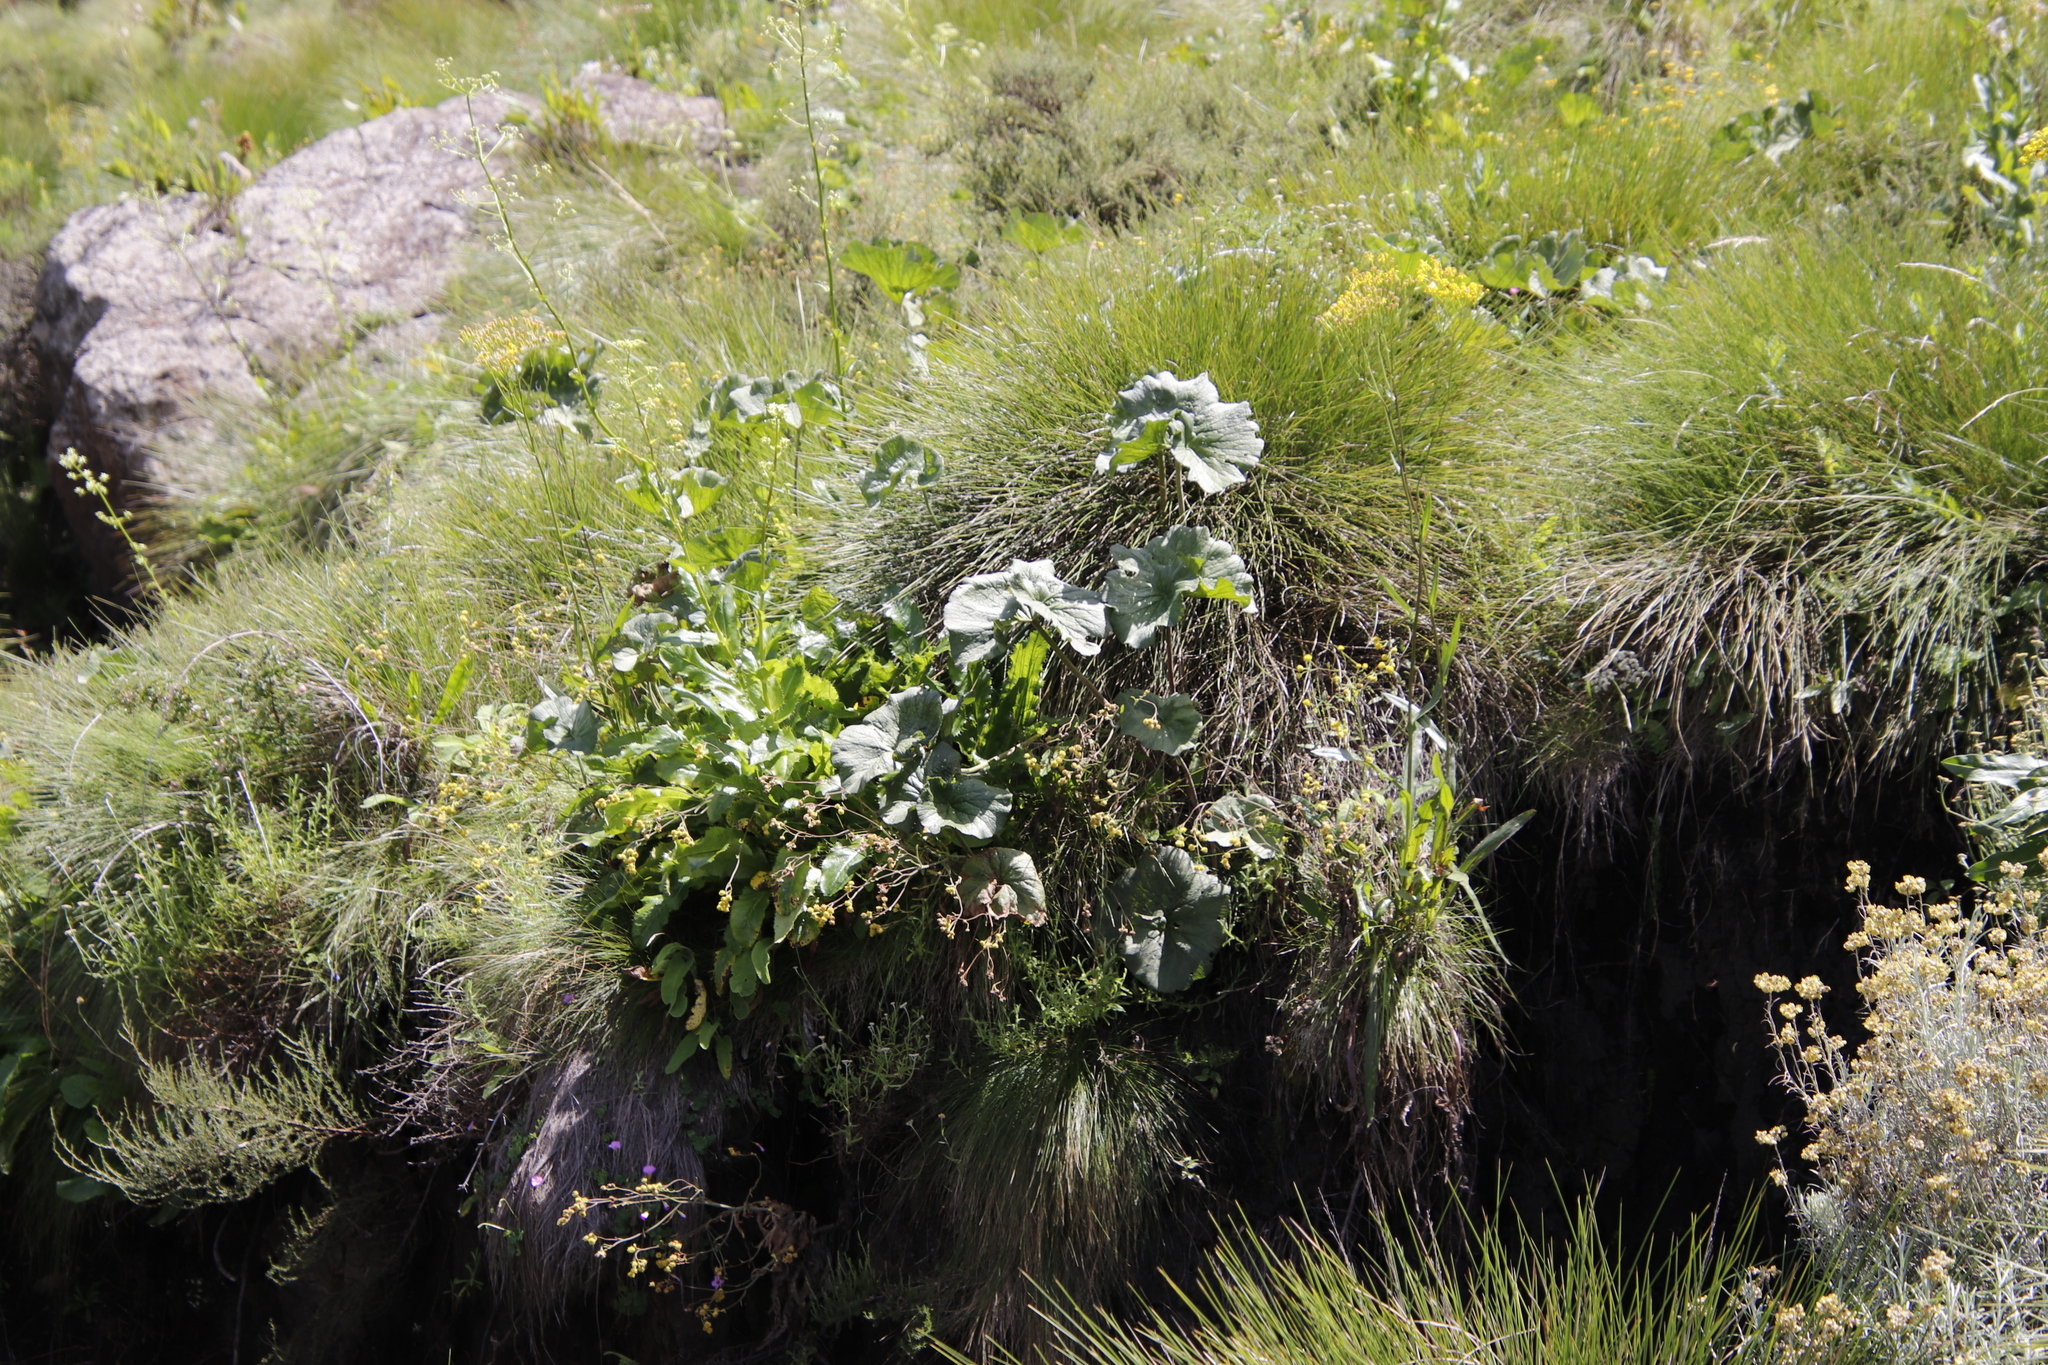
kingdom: Plantae
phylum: Tracheophyta
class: Magnoliopsida
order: Gunnerales
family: Gunneraceae
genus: Gunnera
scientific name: Gunnera perpensa
